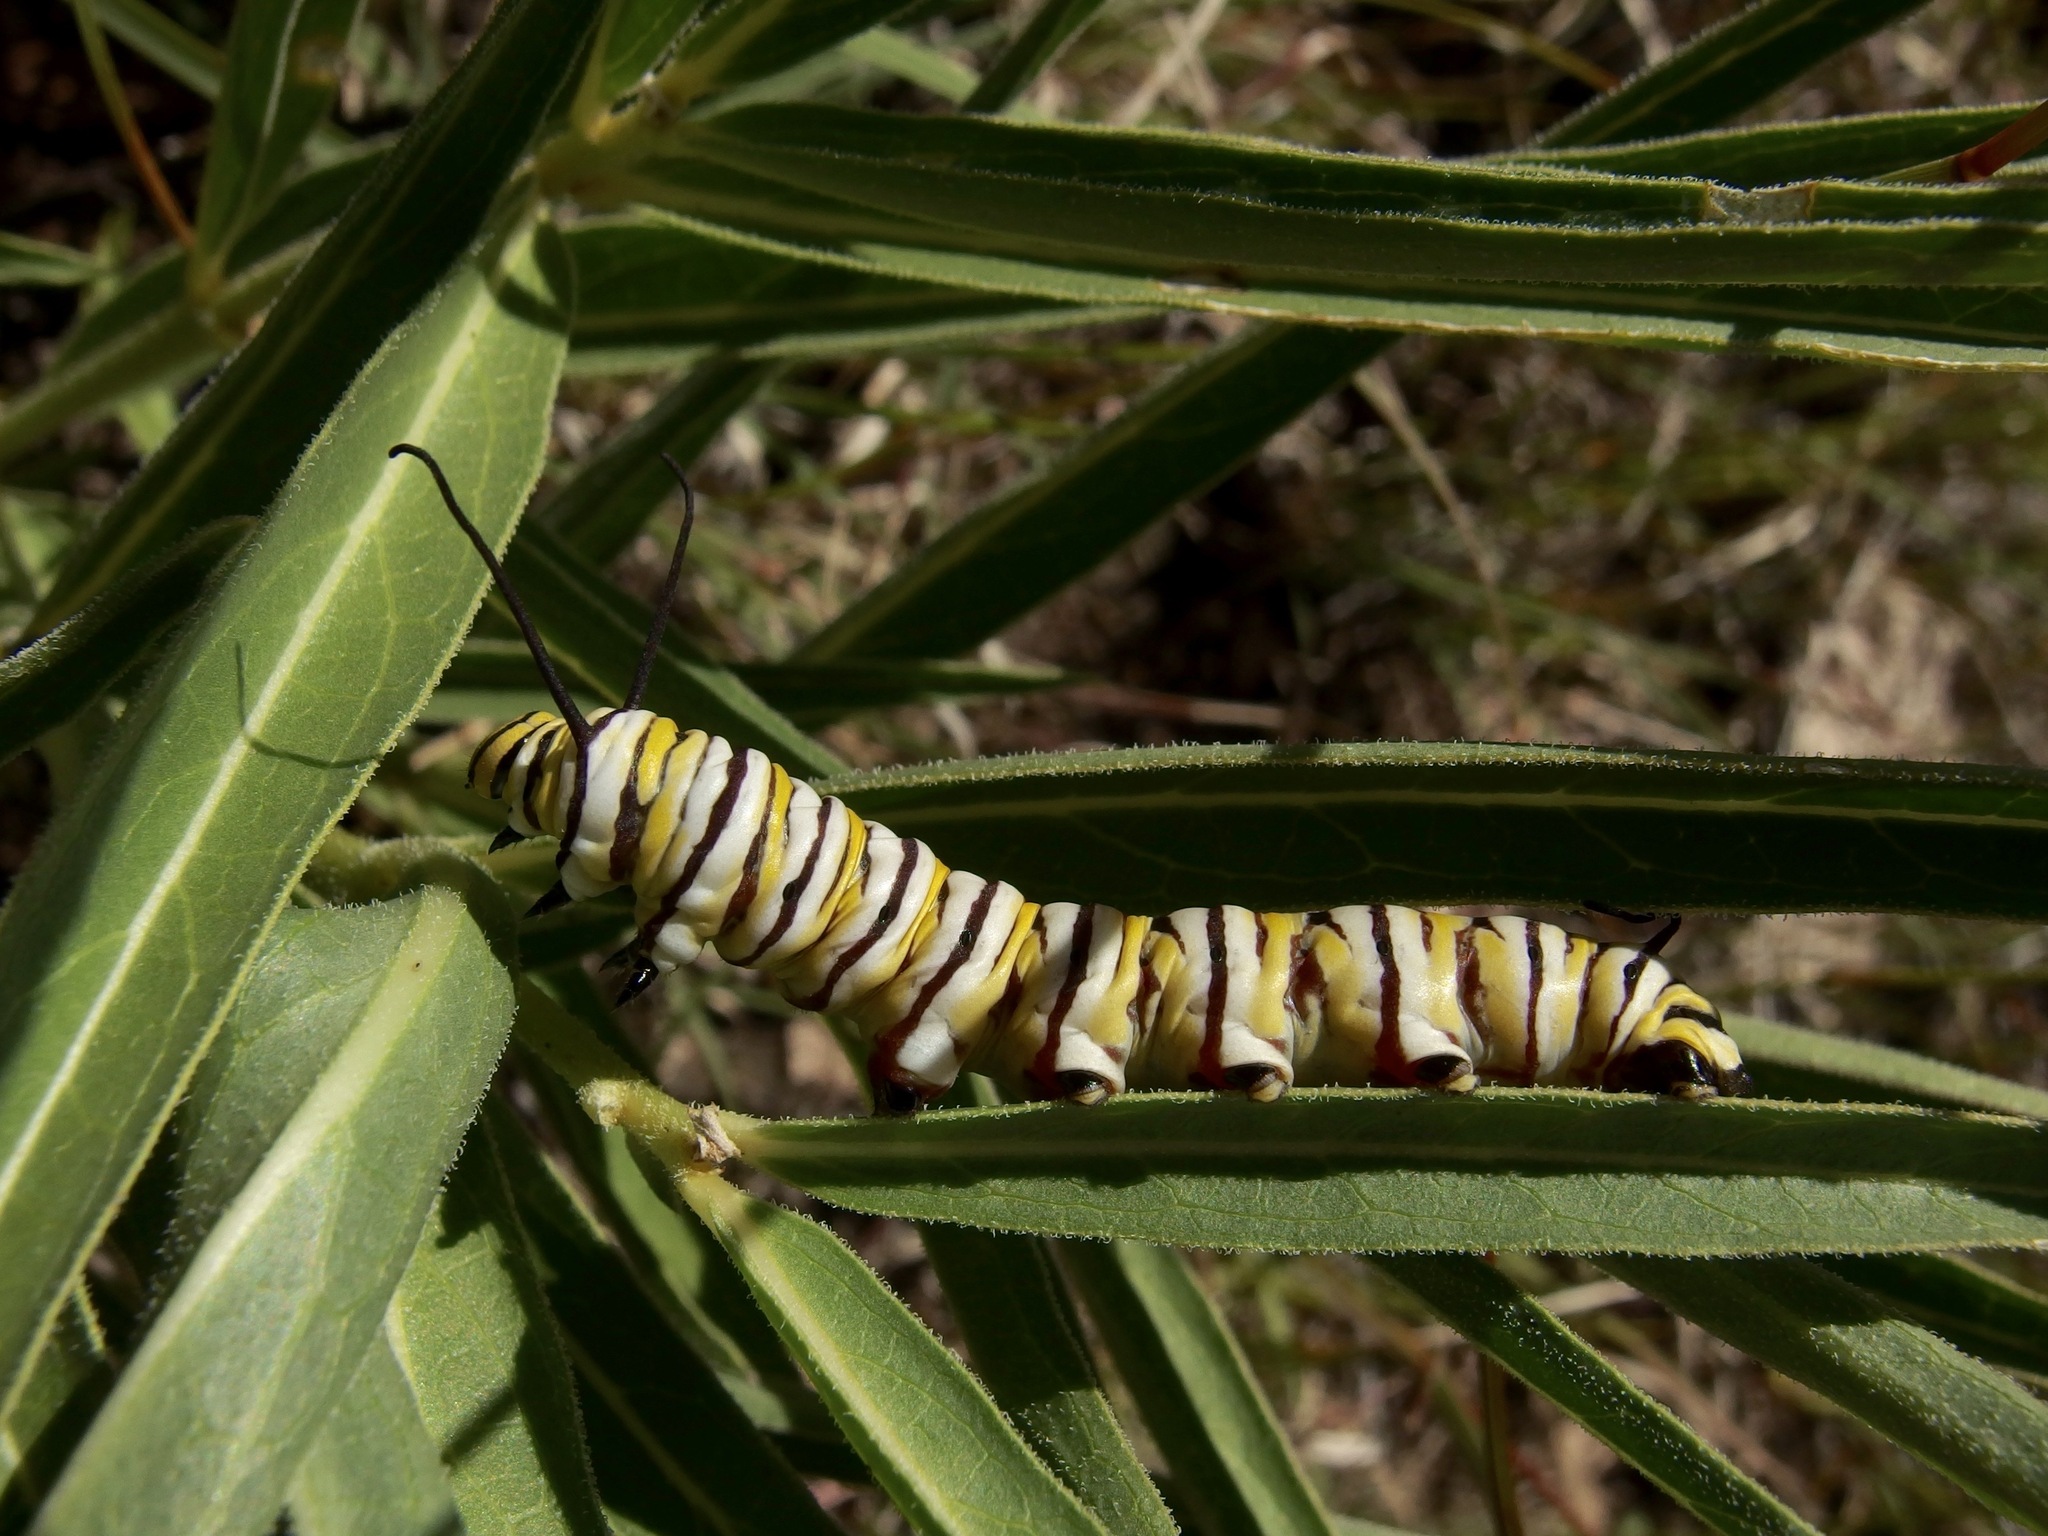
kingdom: Animalia
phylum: Arthropoda
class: Insecta
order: Lepidoptera
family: Nymphalidae
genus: Danaus
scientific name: Danaus plexippus
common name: Monarch
